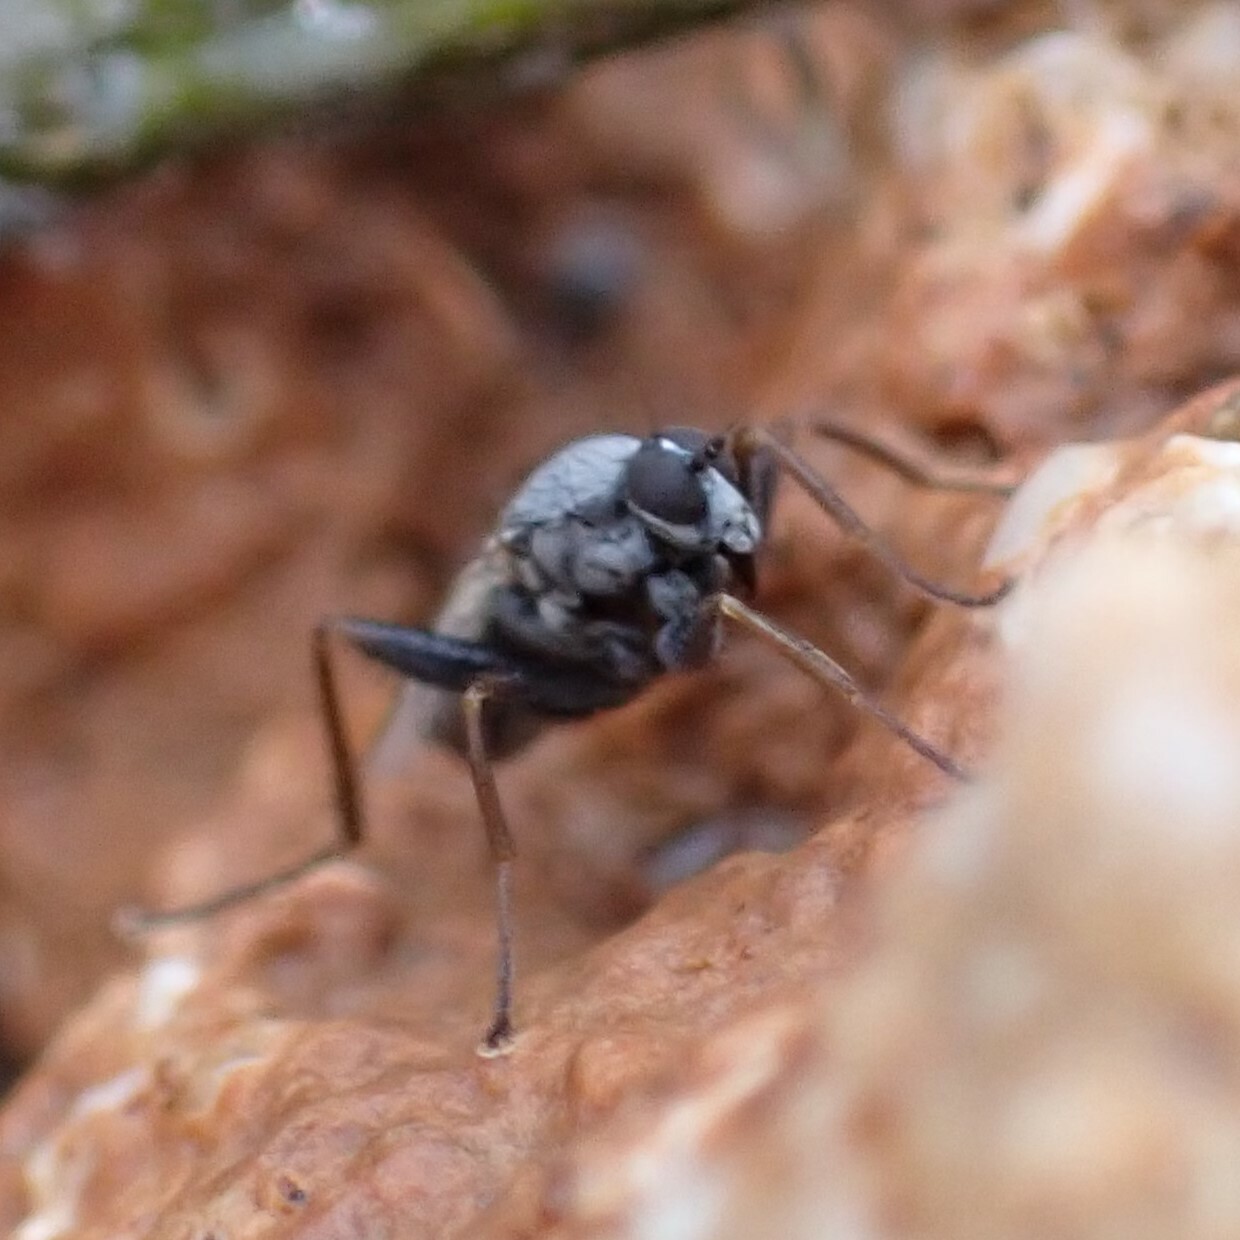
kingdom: Animalia
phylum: Arthropoda
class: Insecta
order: Diptera
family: Hybotidae
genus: Chersodromia
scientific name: Chersodromia inusitata
